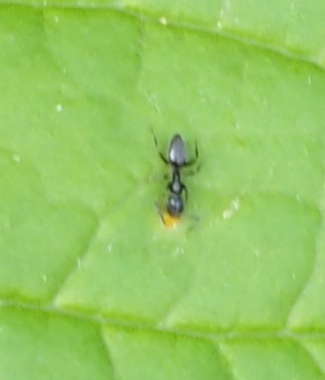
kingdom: Animalia
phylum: Arthropoda
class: Insecta
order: Hymenoptera
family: Formicidae
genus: Tapinoma
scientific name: Tapinoma sessile
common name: Odorous house ant
